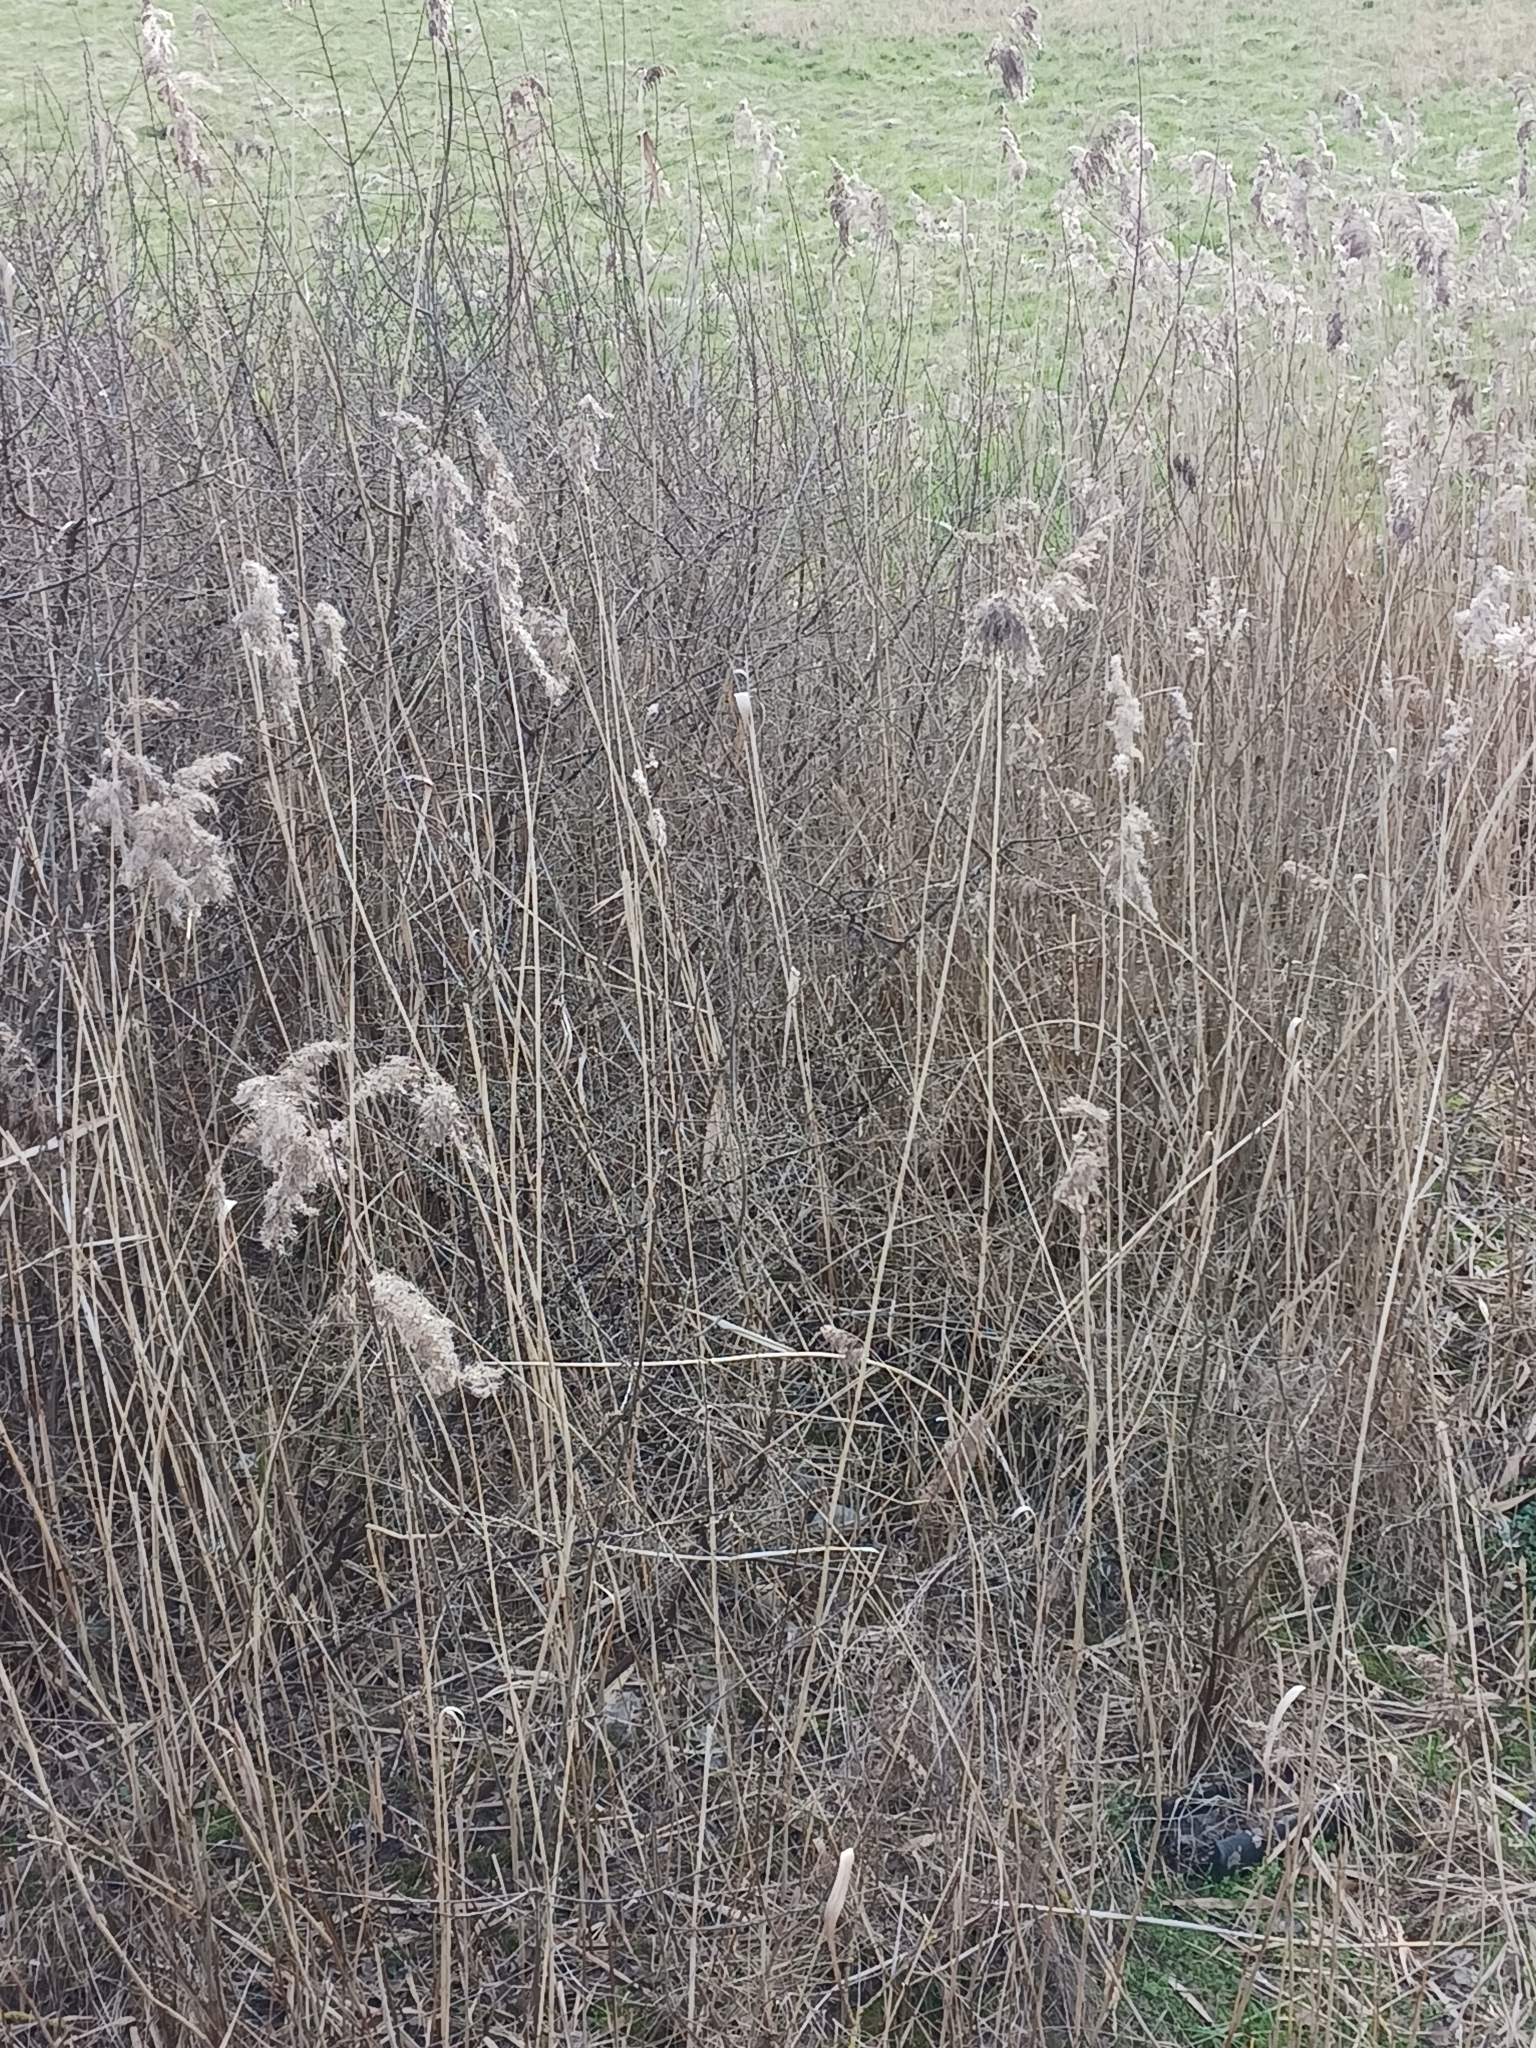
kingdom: Plantae
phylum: Tracheophyta
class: Liliopsida
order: Poales
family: Poaceae
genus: Phragmites
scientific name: Phragmites australis
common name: Common reed
